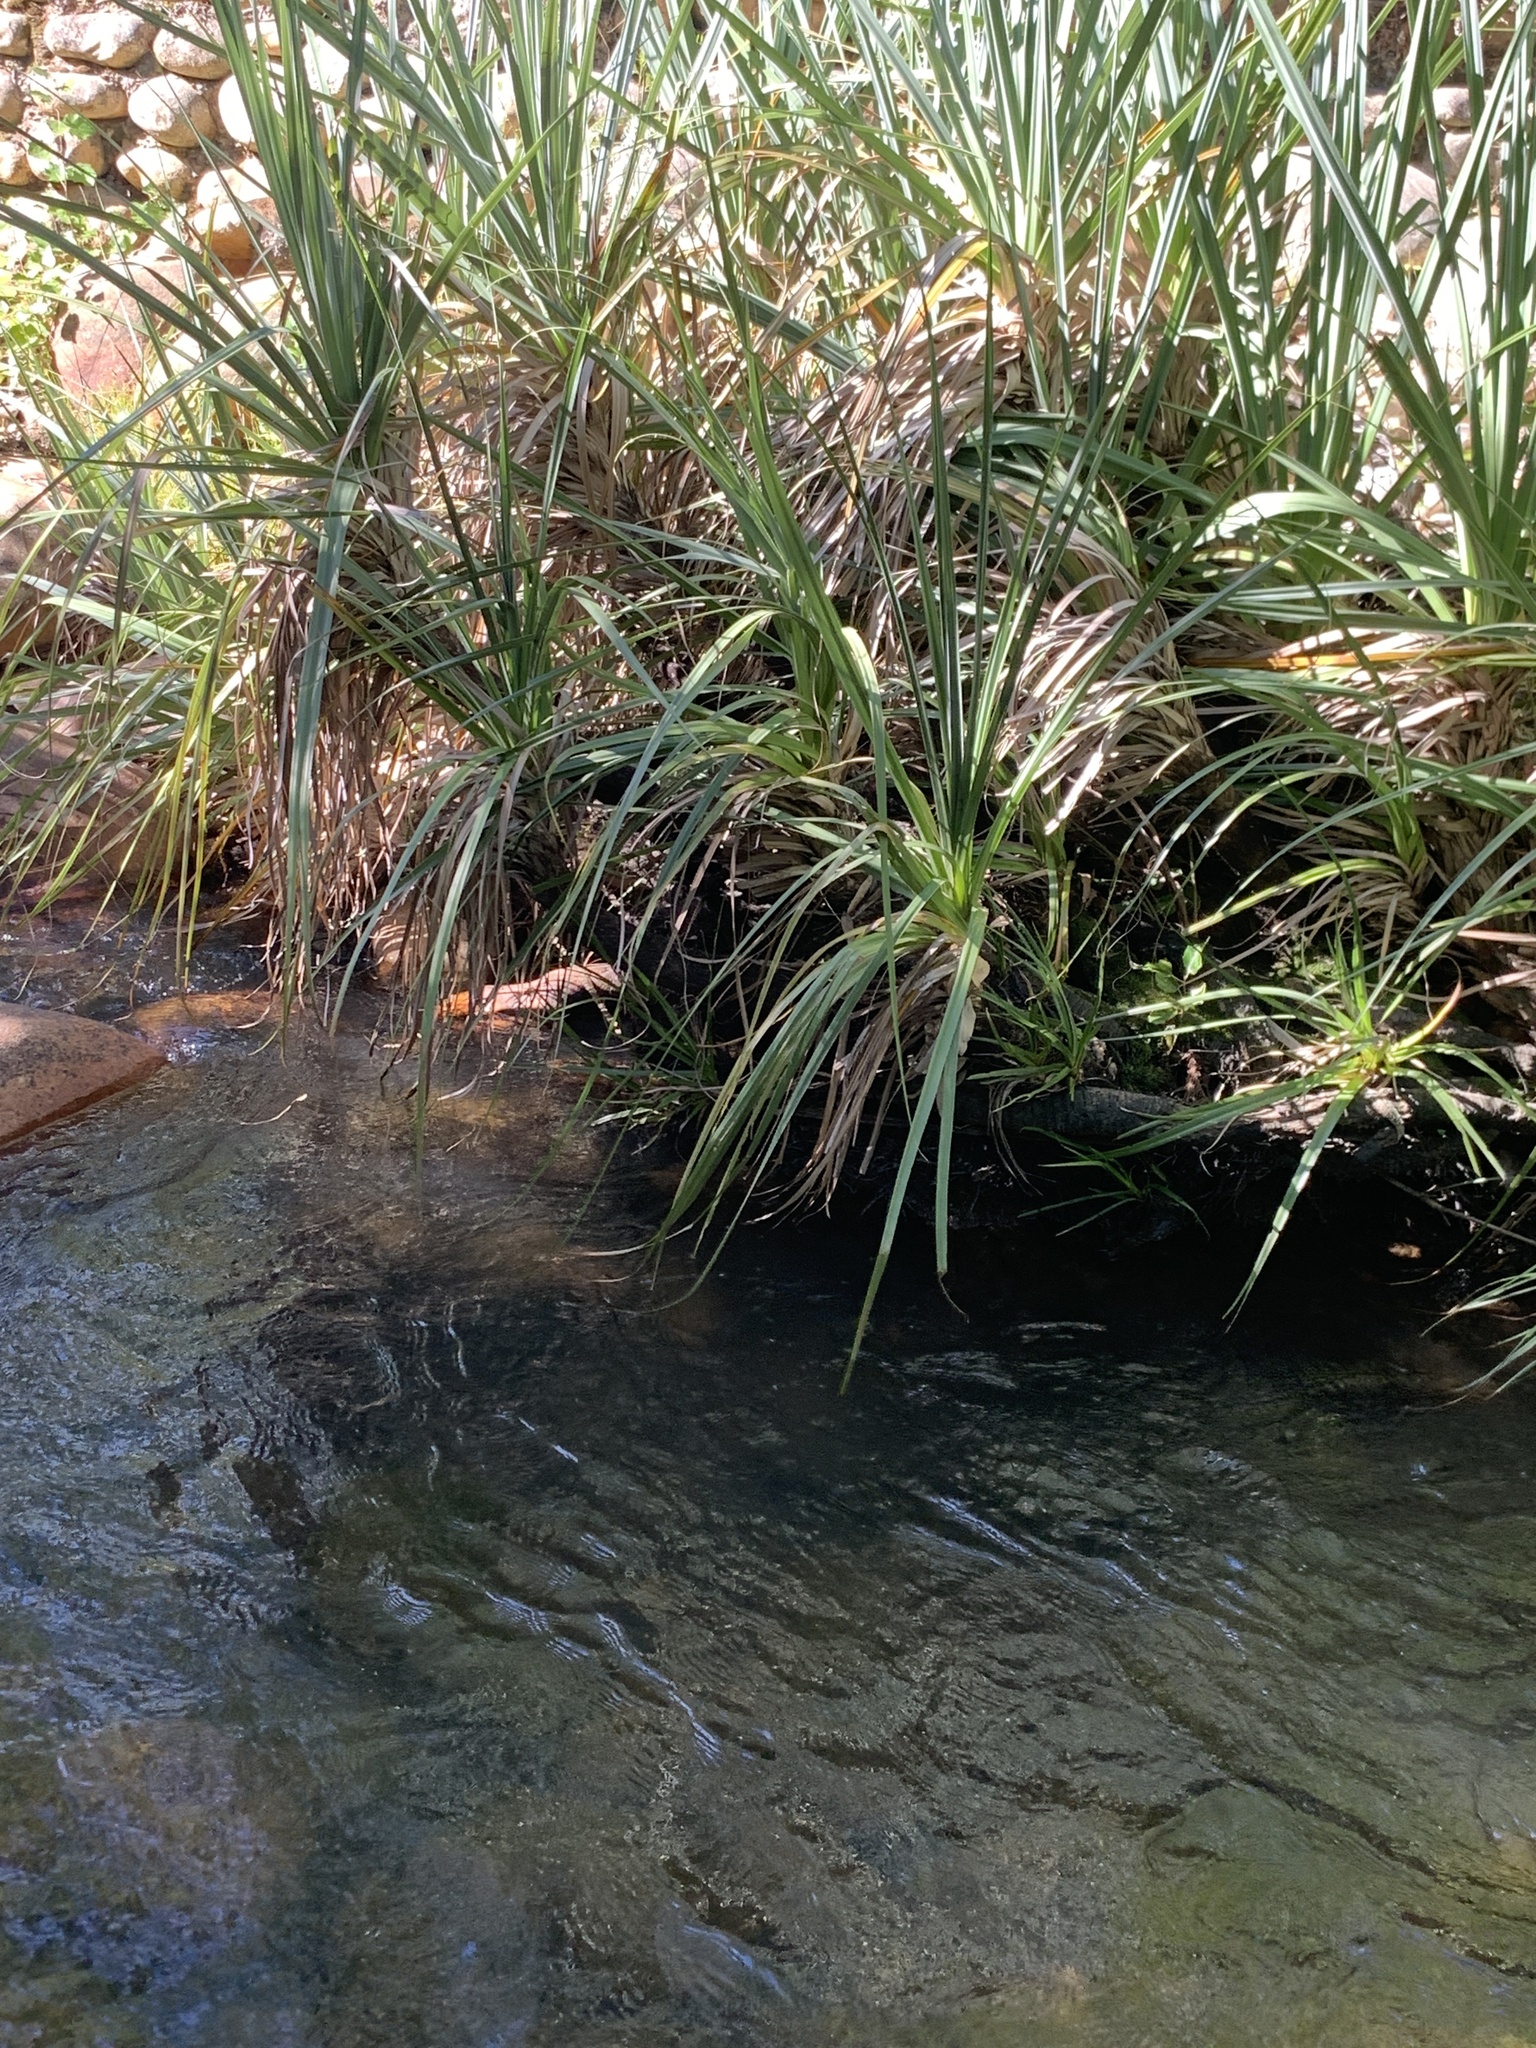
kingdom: Plantae
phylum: Tracheophyta
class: Liliopsida
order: Poales
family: Thurniaceae
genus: Prionium
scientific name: Prionium serratum
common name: Palmiet
